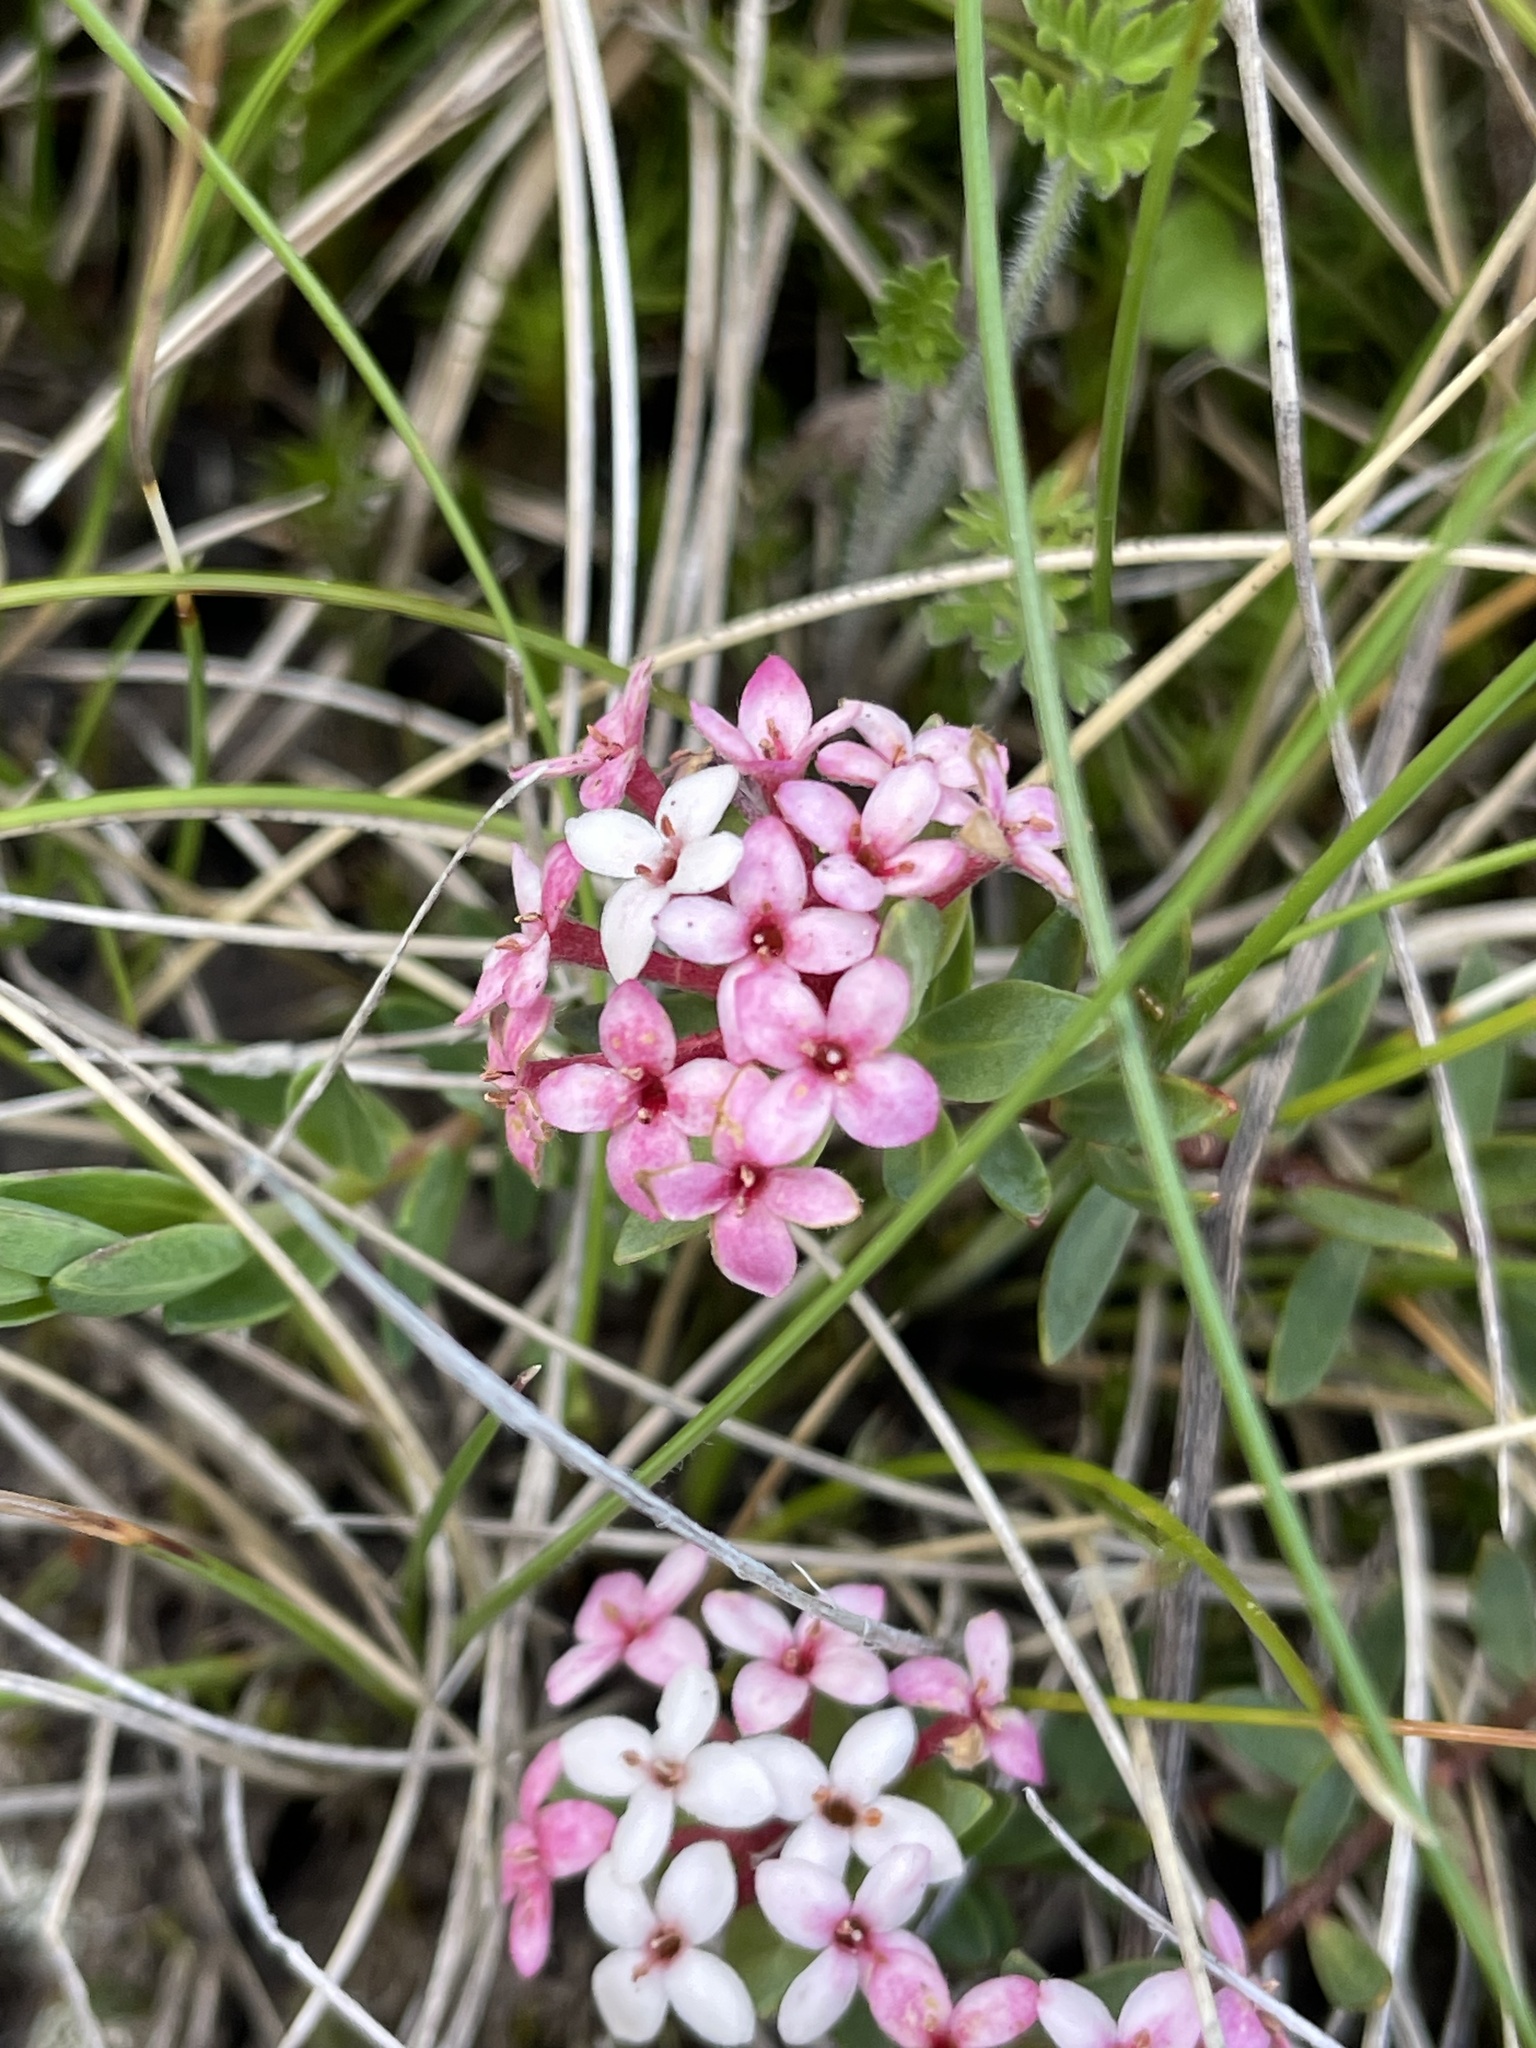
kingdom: Plantae
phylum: Tracheophyta
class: Magnoliopsida
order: Malvales
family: Thymelaeaceae
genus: Pimelea
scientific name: Pimelea alpina
